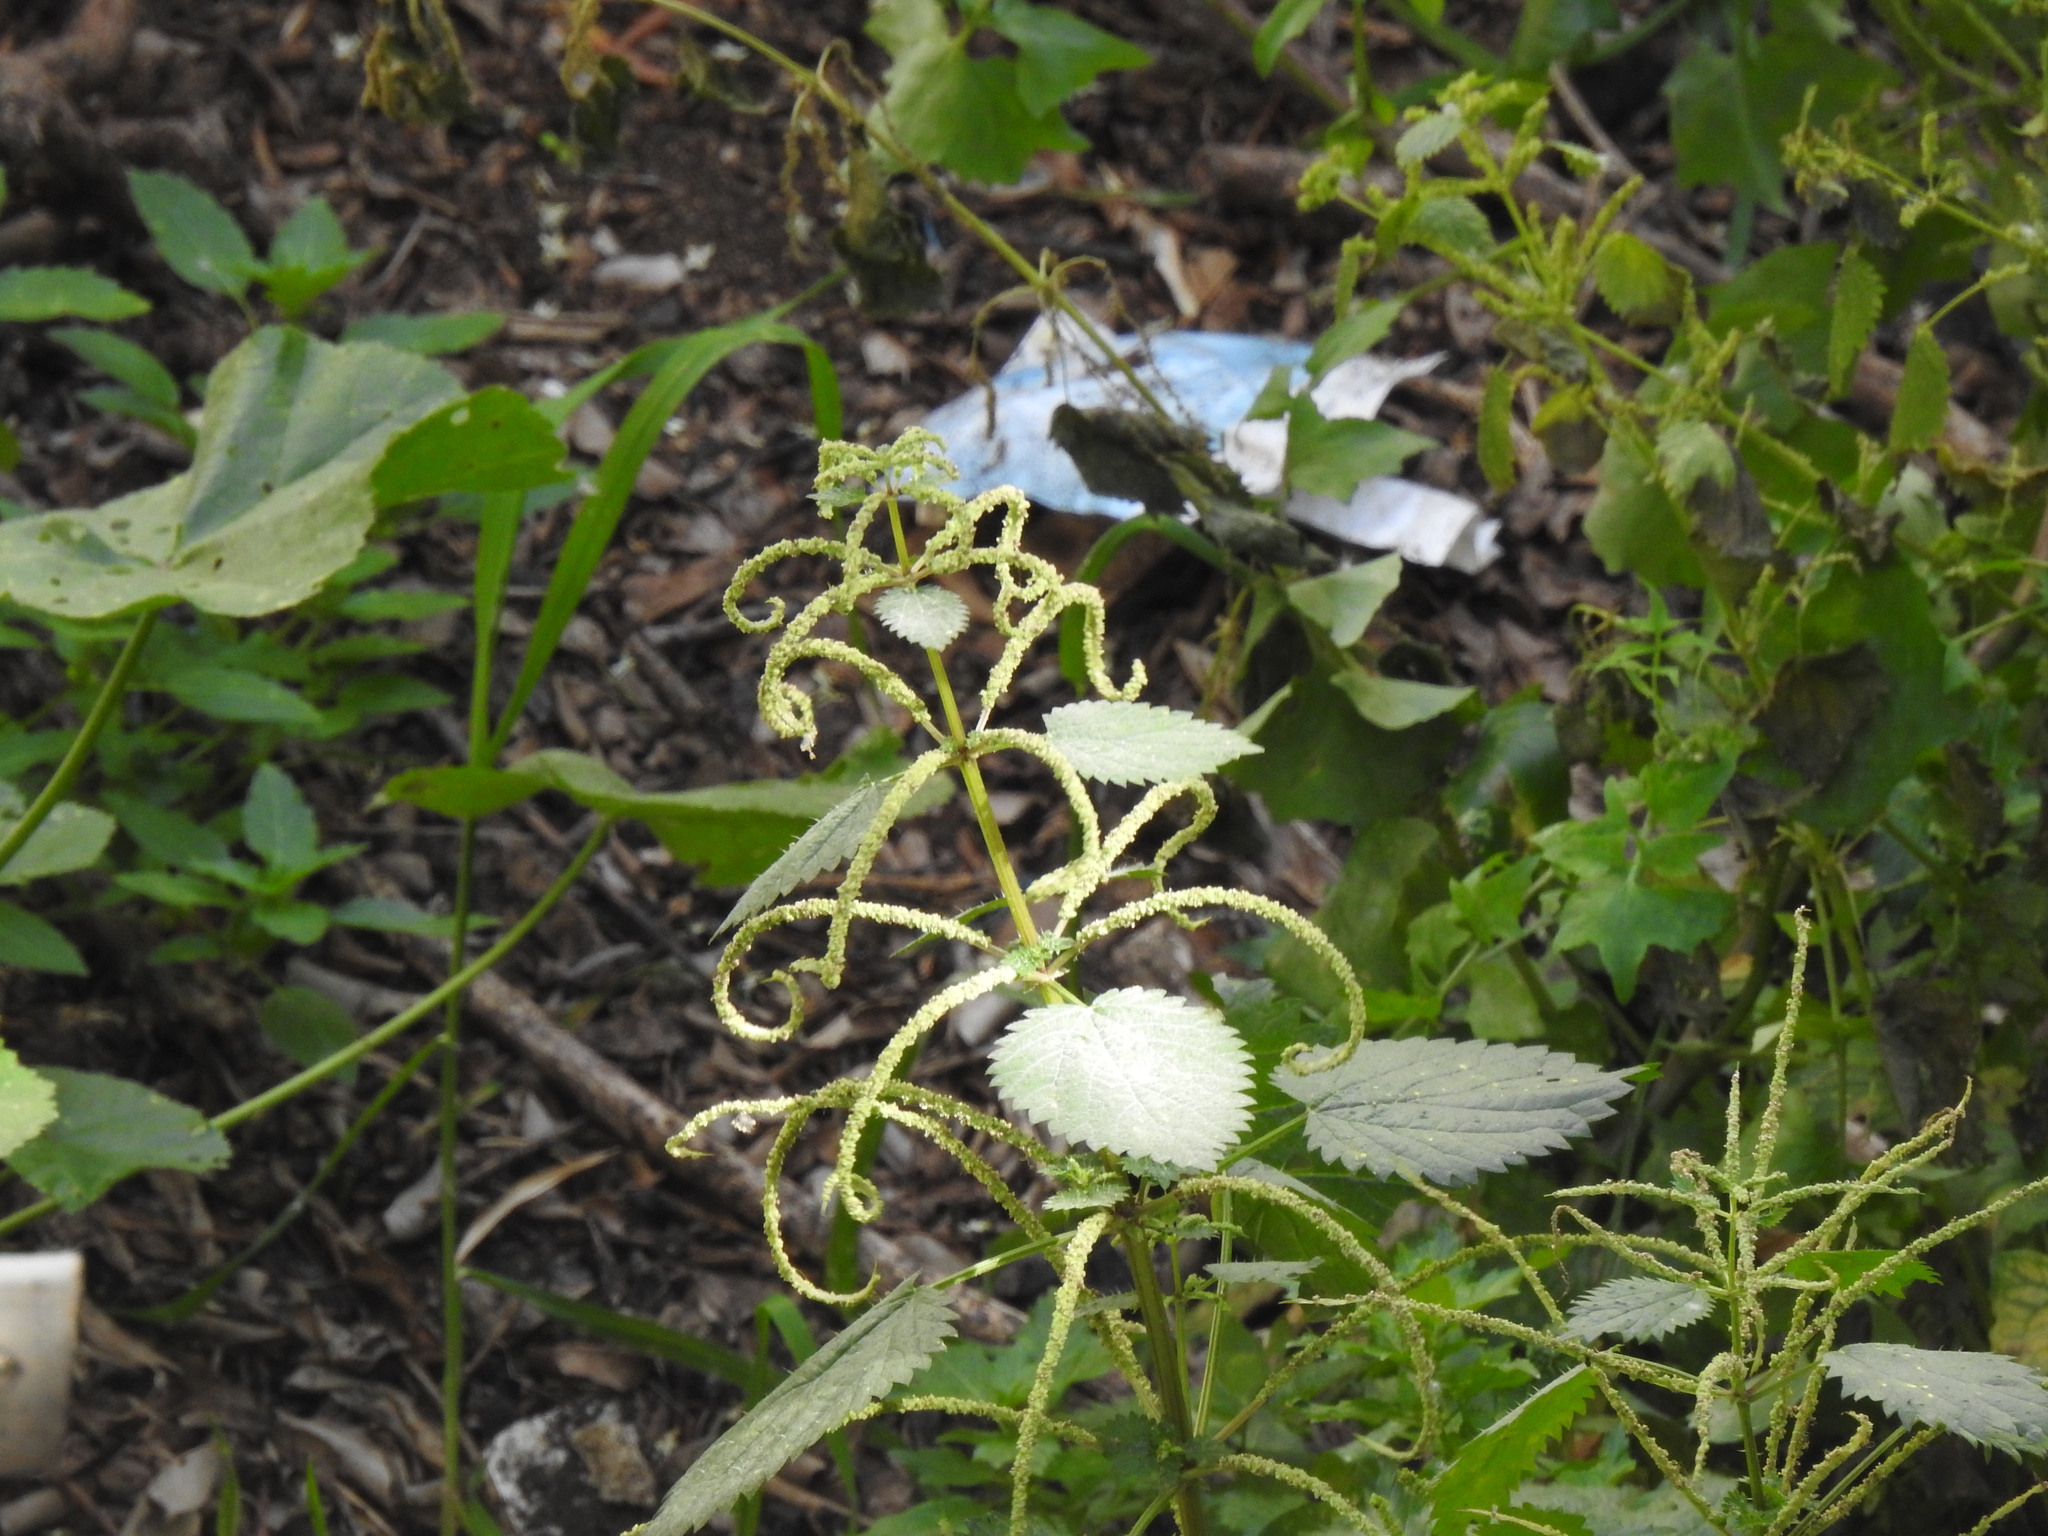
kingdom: Plantae
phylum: Tracheophyta
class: Magnoliopsida
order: Rosales
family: Urticaceae
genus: Urtica
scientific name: Urtica membranacea
